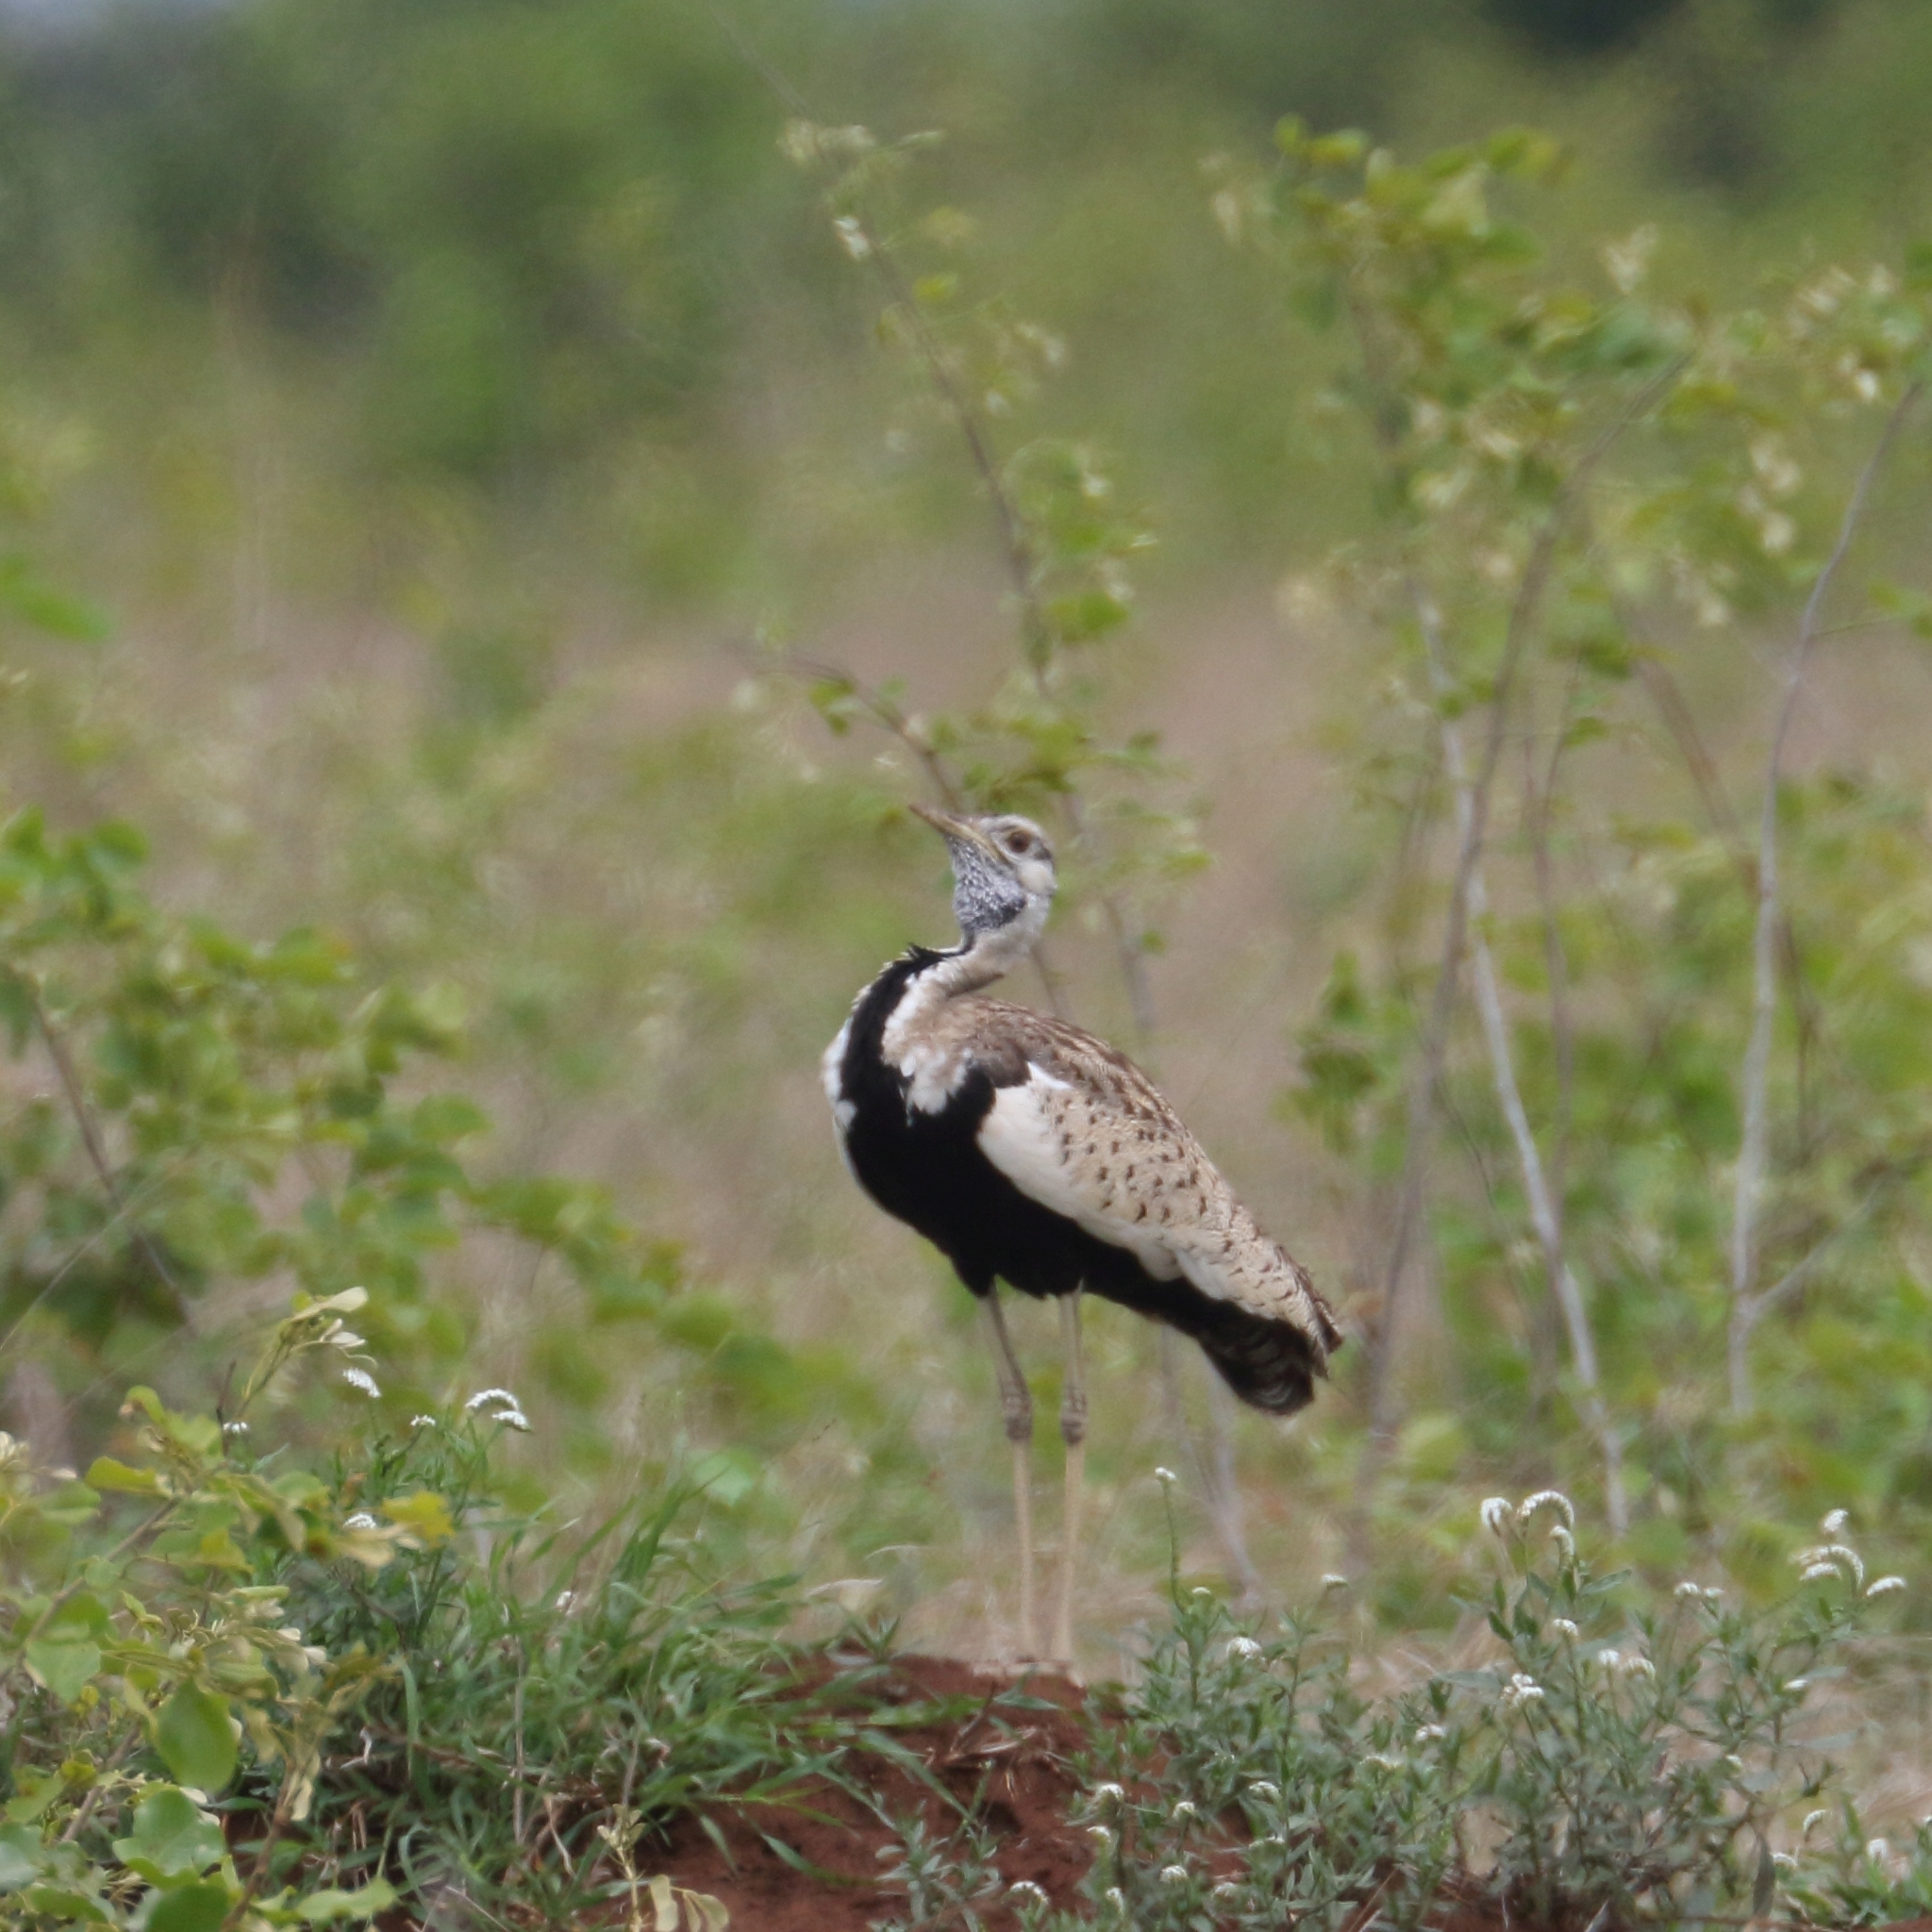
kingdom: Animalia
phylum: Chordata
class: Aves
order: Otidiformes
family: Otididae
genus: Lissotis
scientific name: Lissotis melanogaster
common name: Black-bellied bustard
